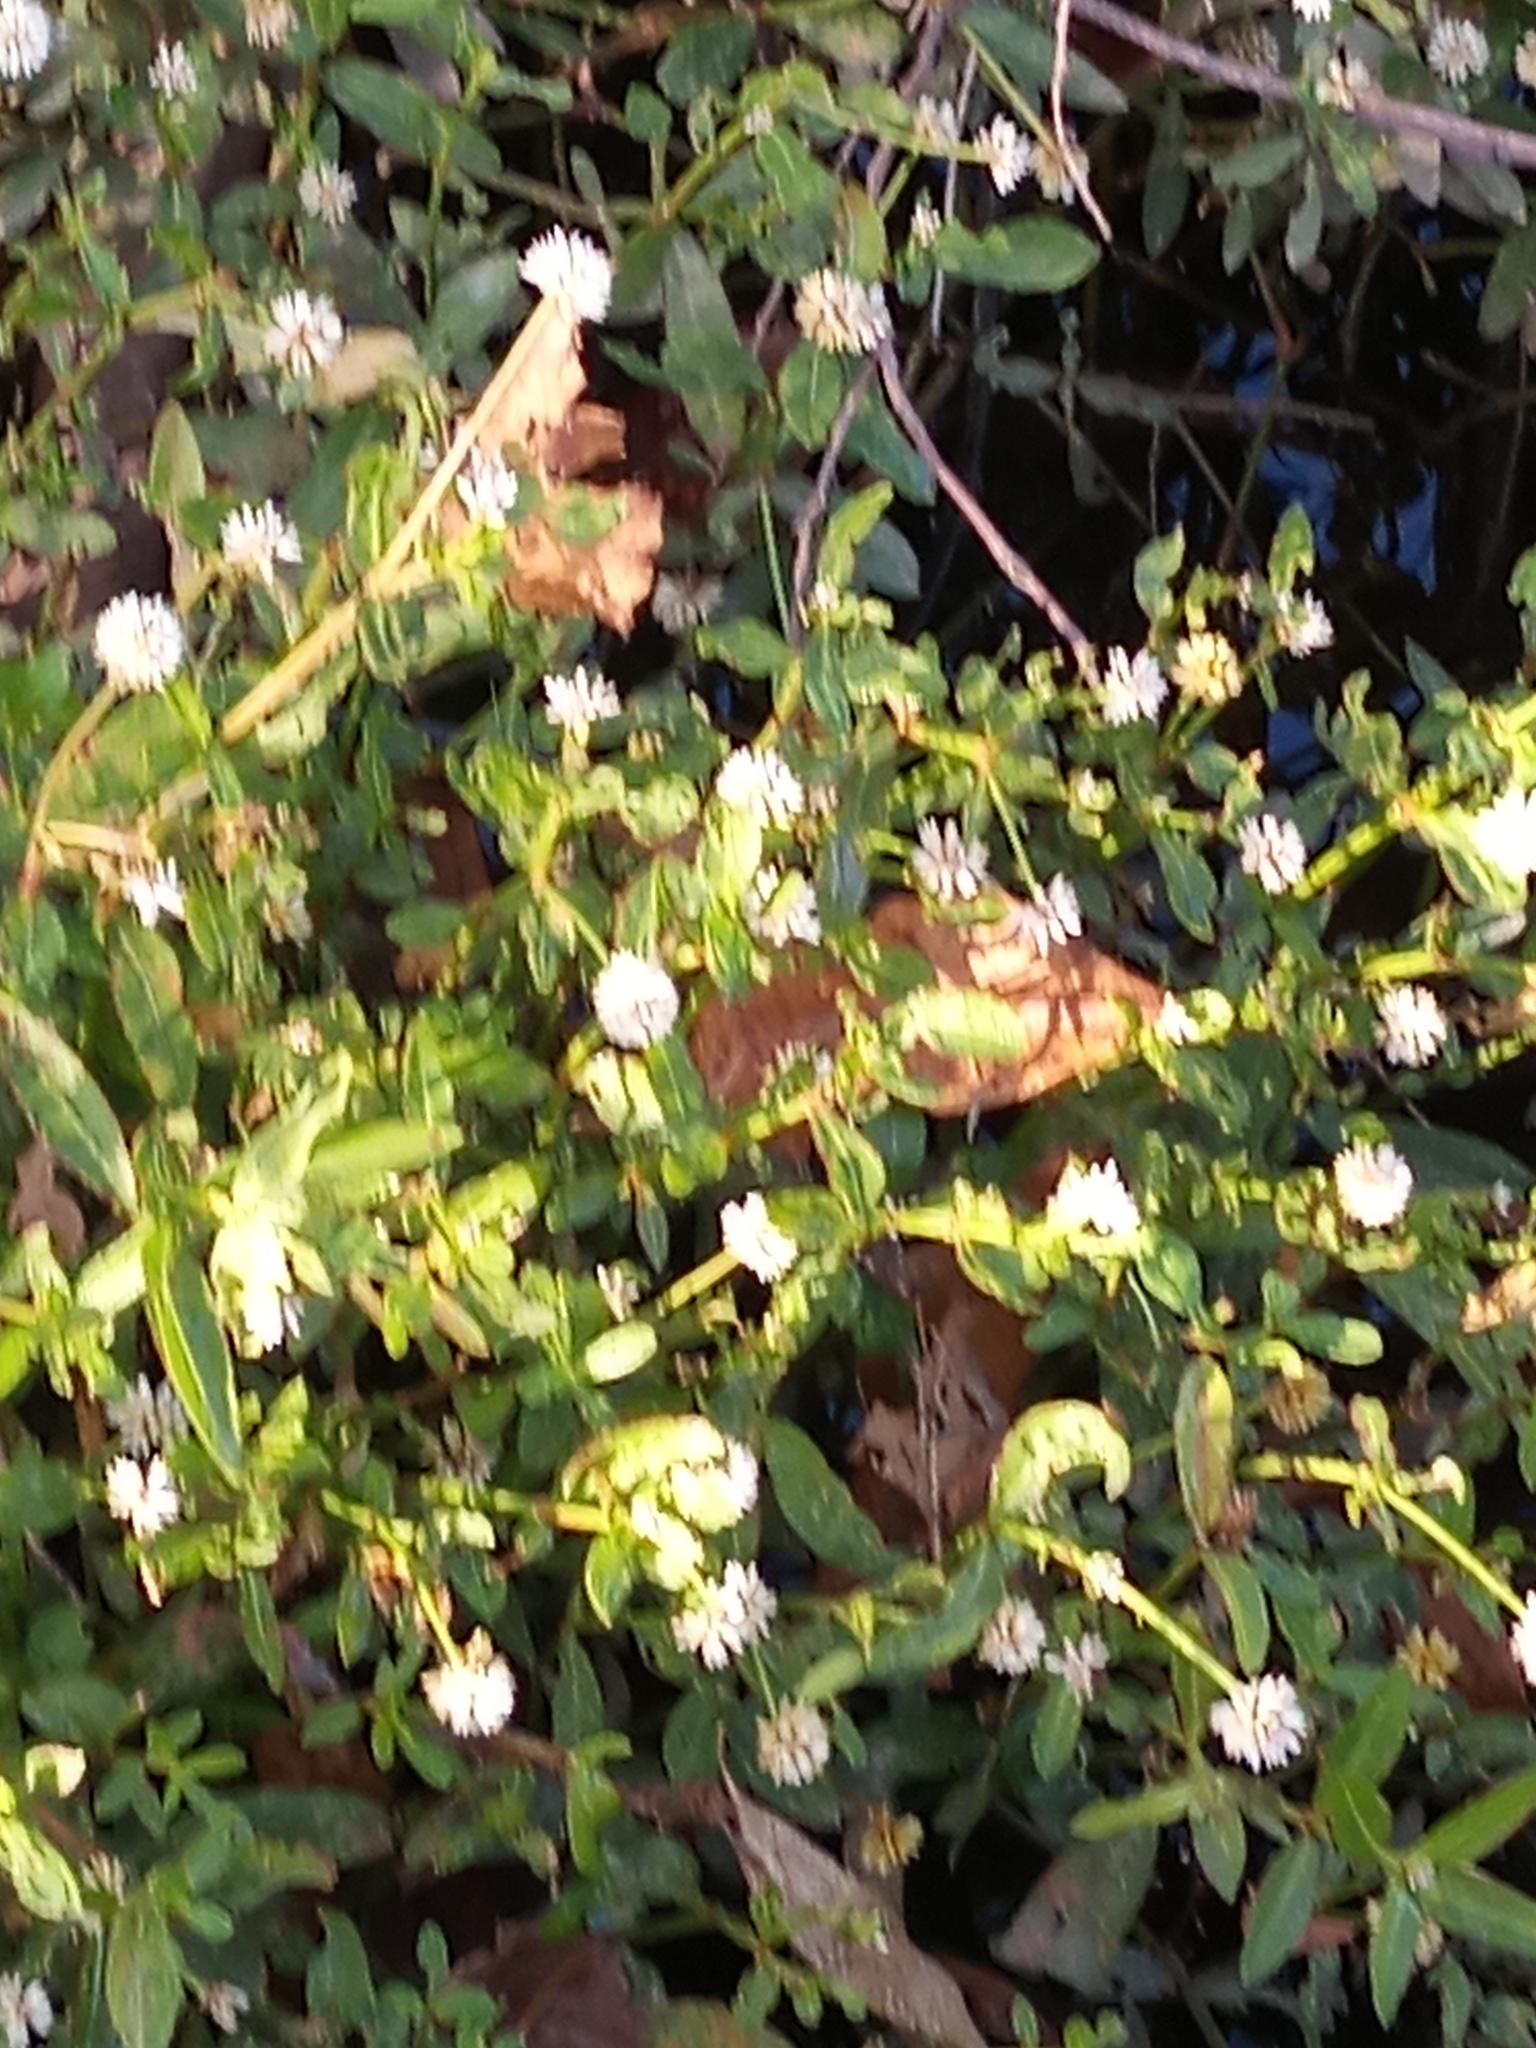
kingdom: Plantae
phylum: Tracheophyta
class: Magnoliopsida
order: Caryophyllales
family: Amaranthaceae
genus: Alternanthera
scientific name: Alternanthera philoxeroides
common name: Alligatorweed
